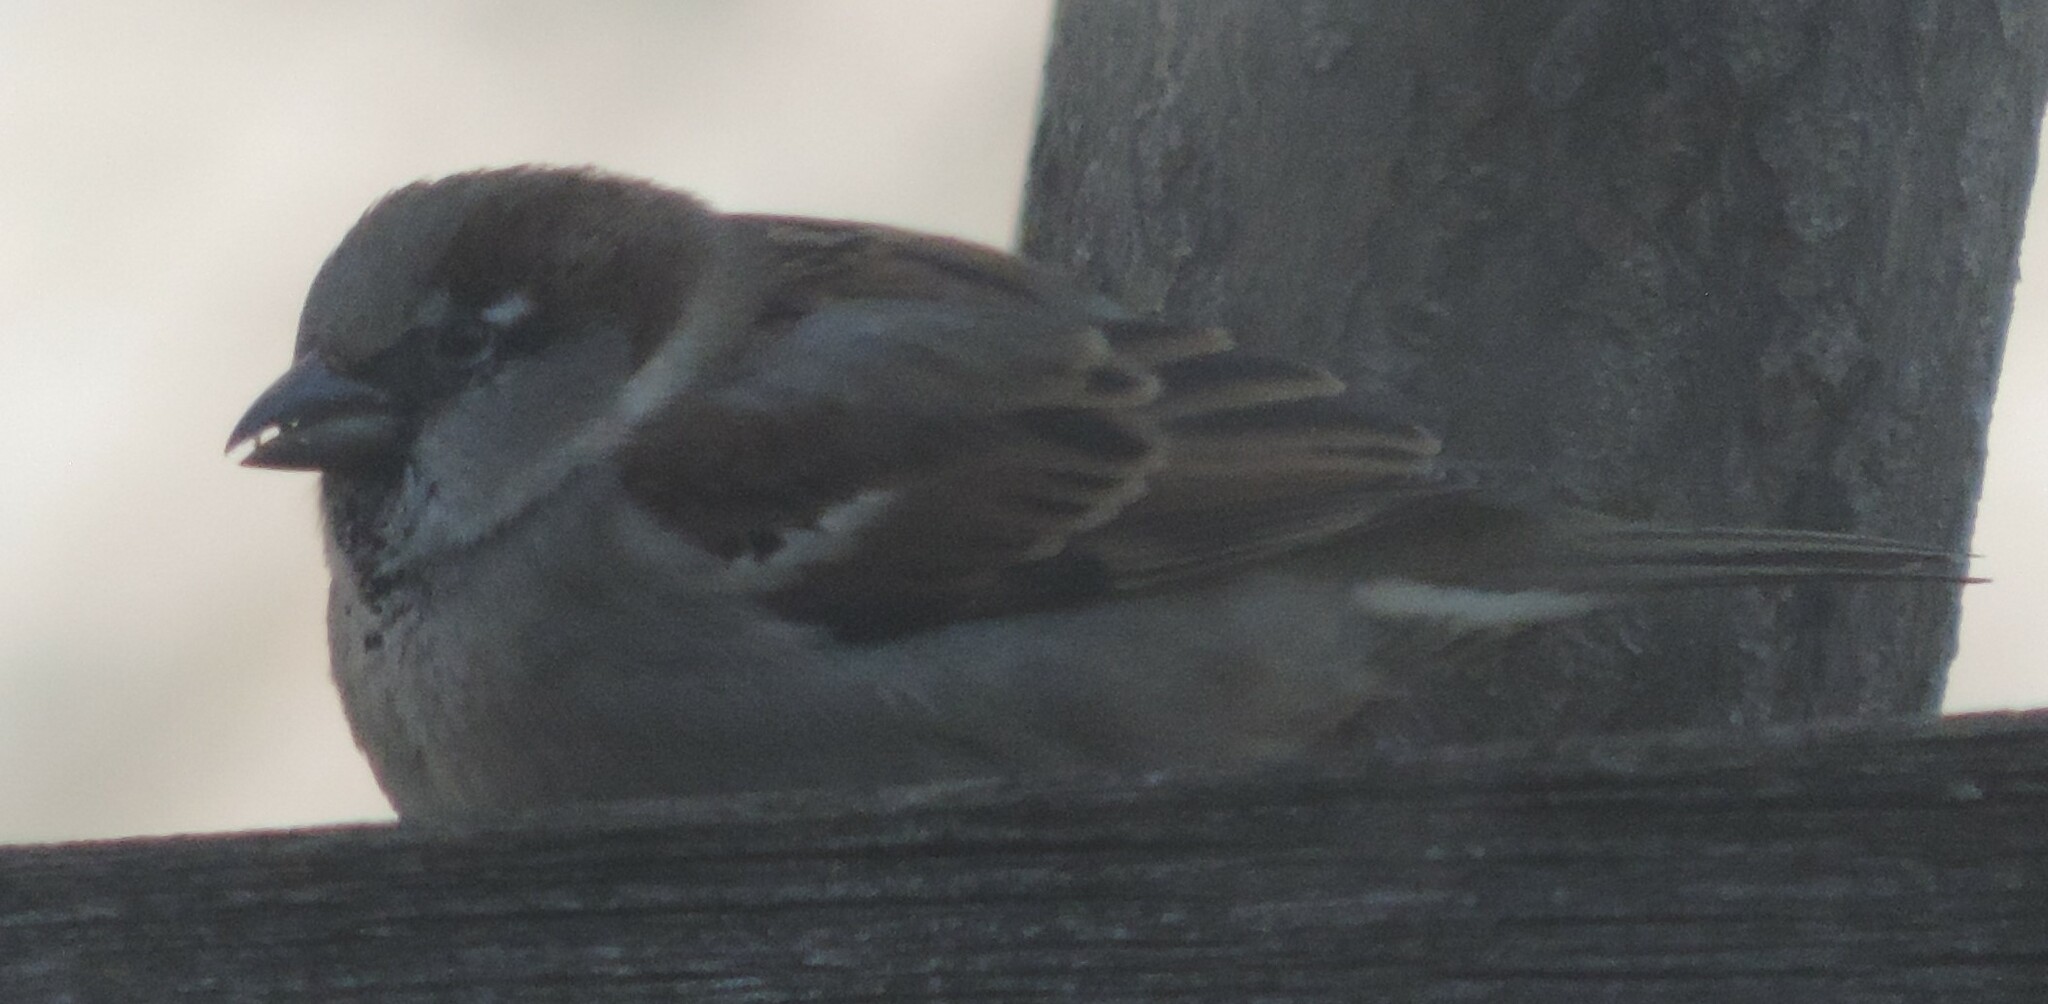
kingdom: Animalia
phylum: Chordata
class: Aves
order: Passeriformes
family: Passeridae
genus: Passer
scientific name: Passer domesticus
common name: House sparrow
